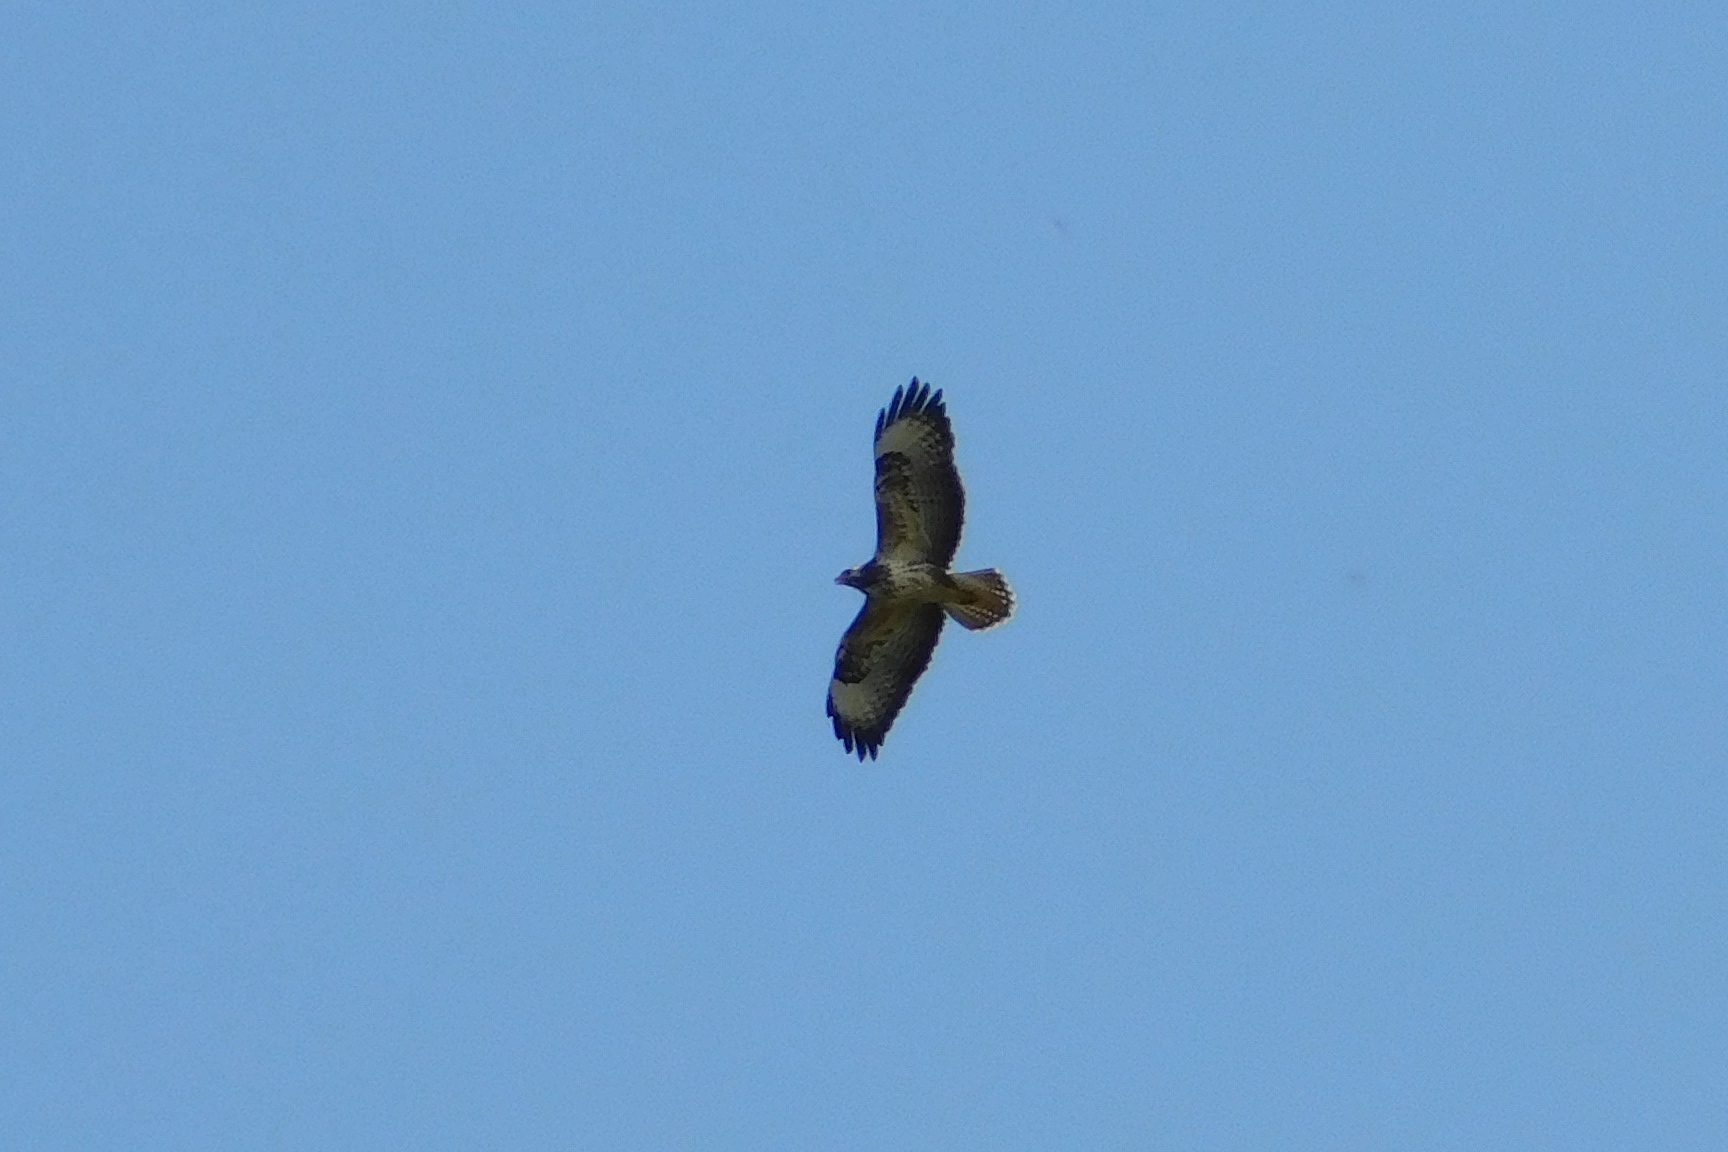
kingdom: Animalia
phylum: Chordata
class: Aves
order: Accipitriformes
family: Accipitridae
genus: Buteo
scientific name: Buteo buteo
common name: Common buzzard
